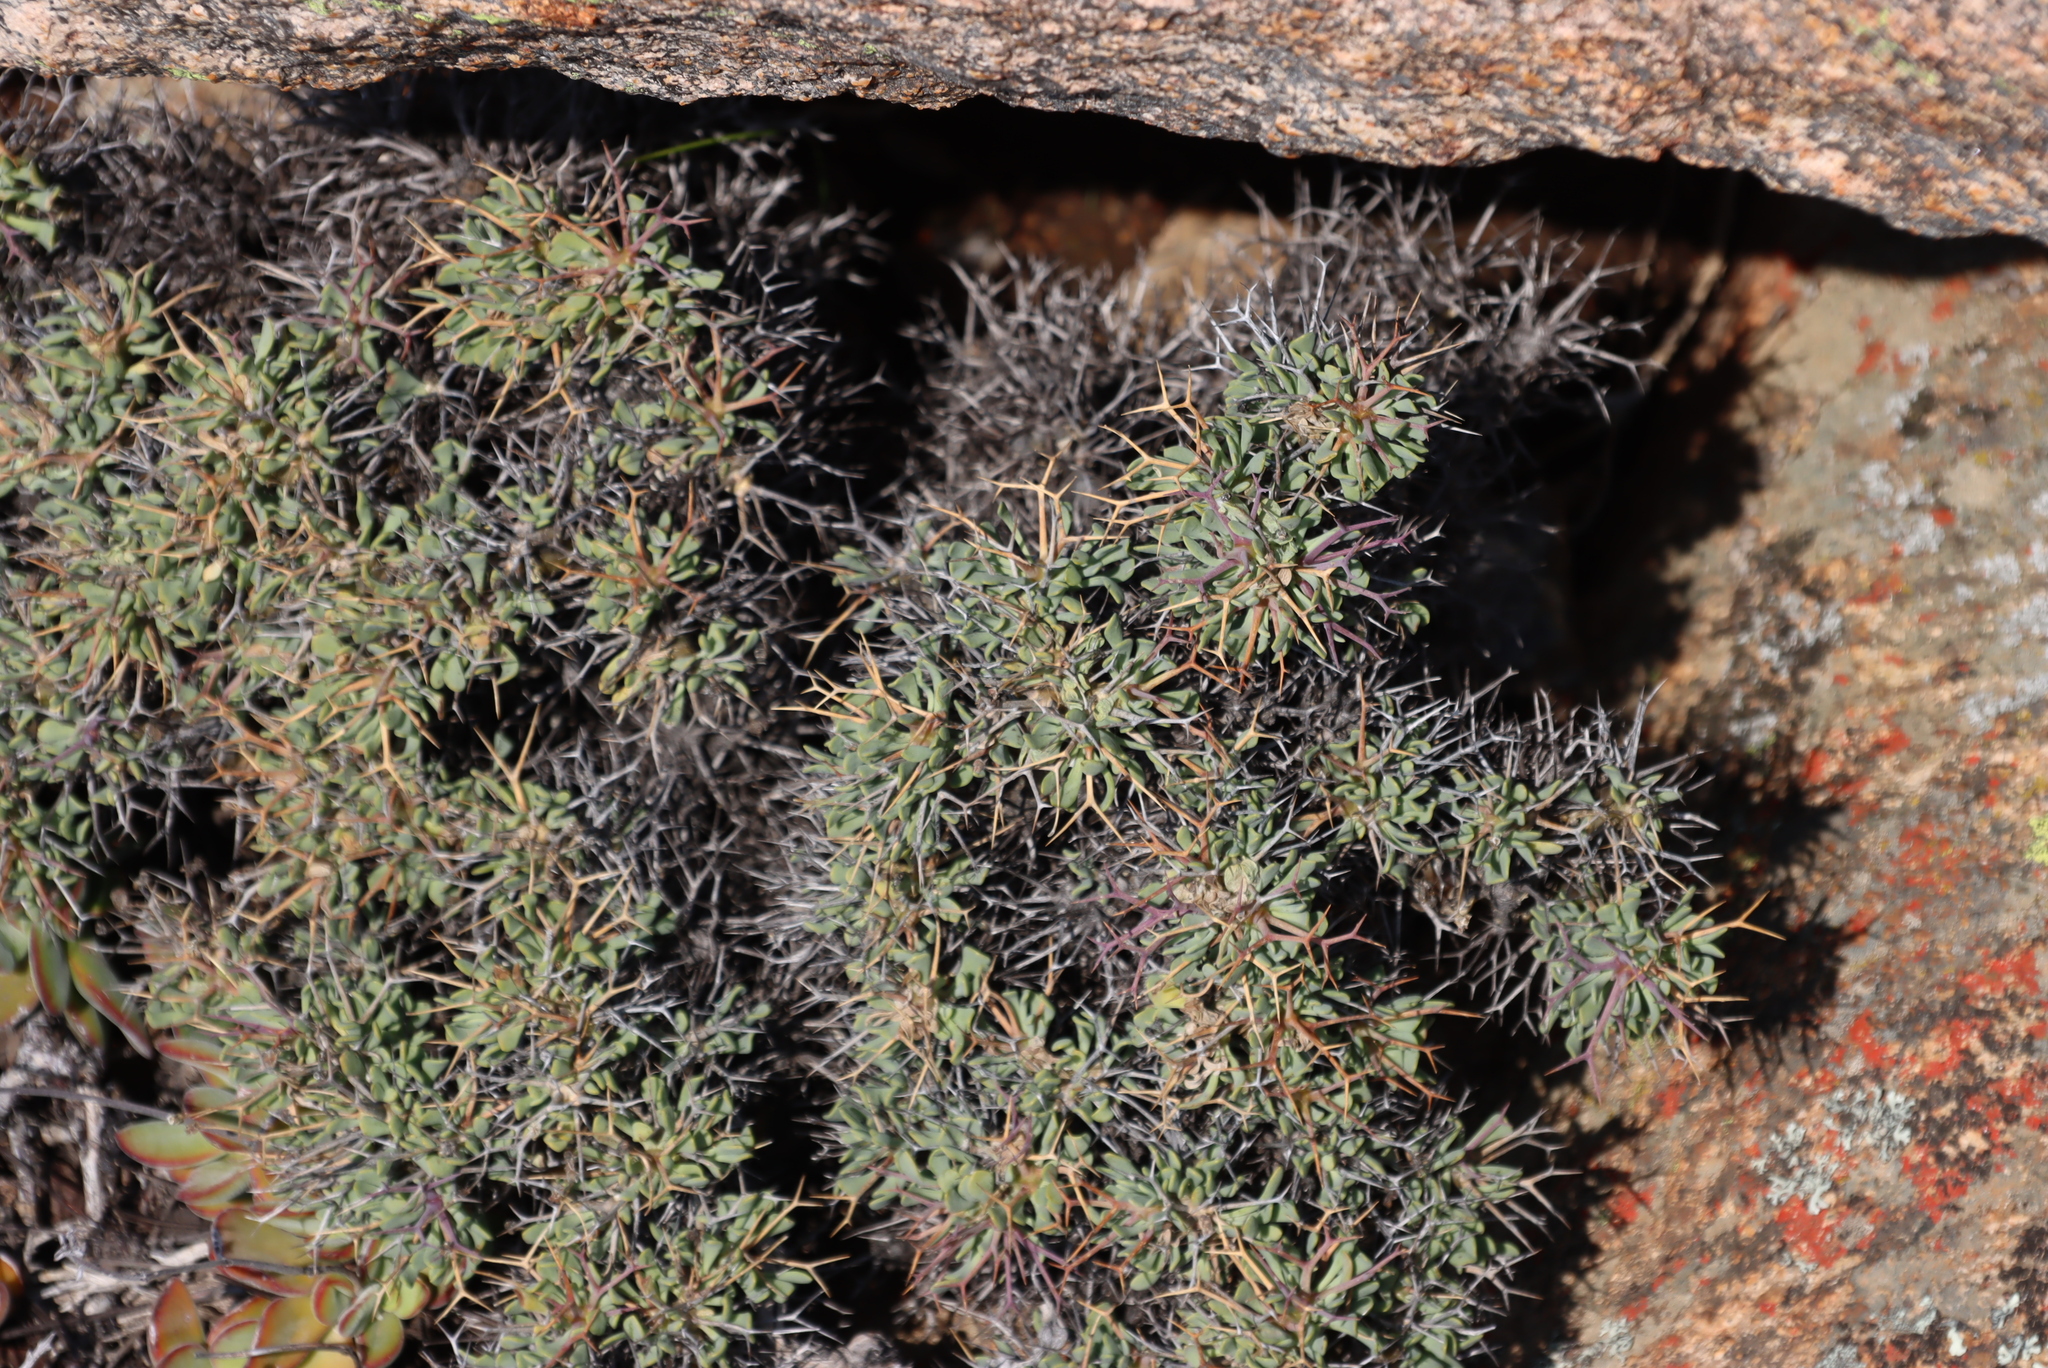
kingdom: Plantae
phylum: Tracheophyta
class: Magnoliopsida
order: Saxifragales
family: Crassulaceae
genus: Tylecodon
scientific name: Tylecodon reticulatus
